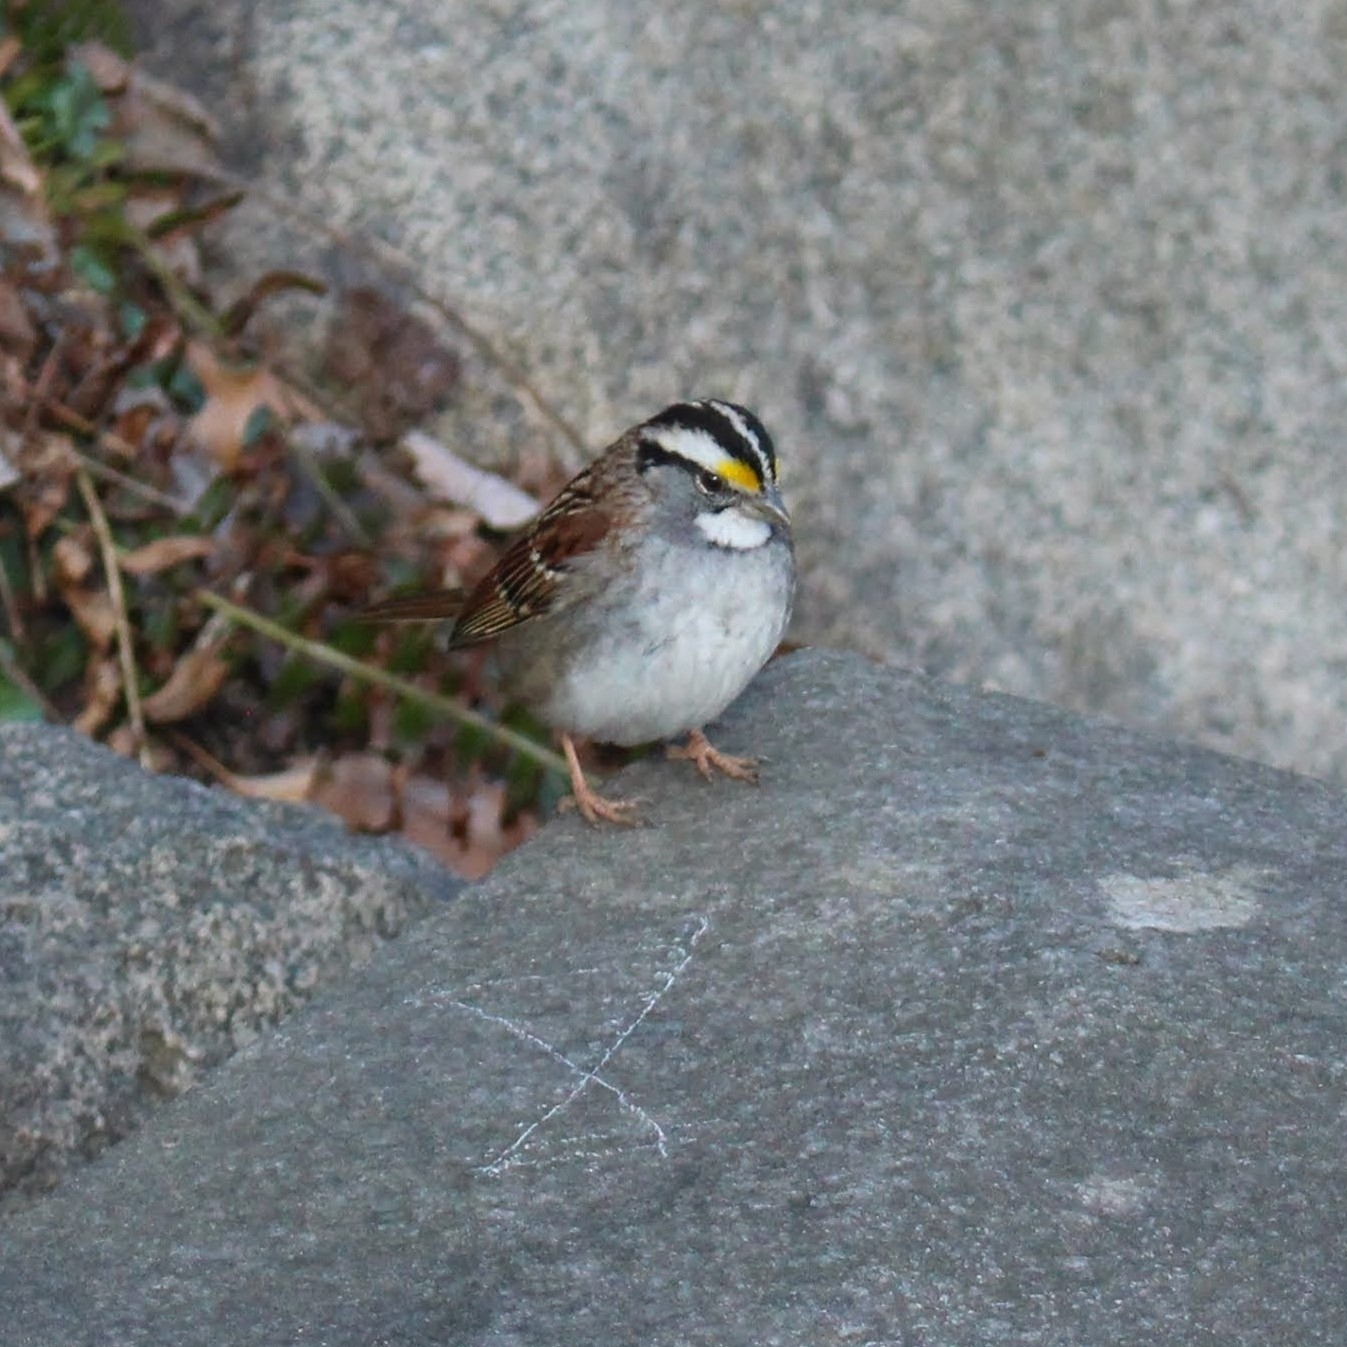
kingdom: Animalia
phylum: Chordata
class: Aves
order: Passeriformes
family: Passerellidae
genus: Zonotrichia
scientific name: Zonotrichia albicollis
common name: White-throated sparrow
